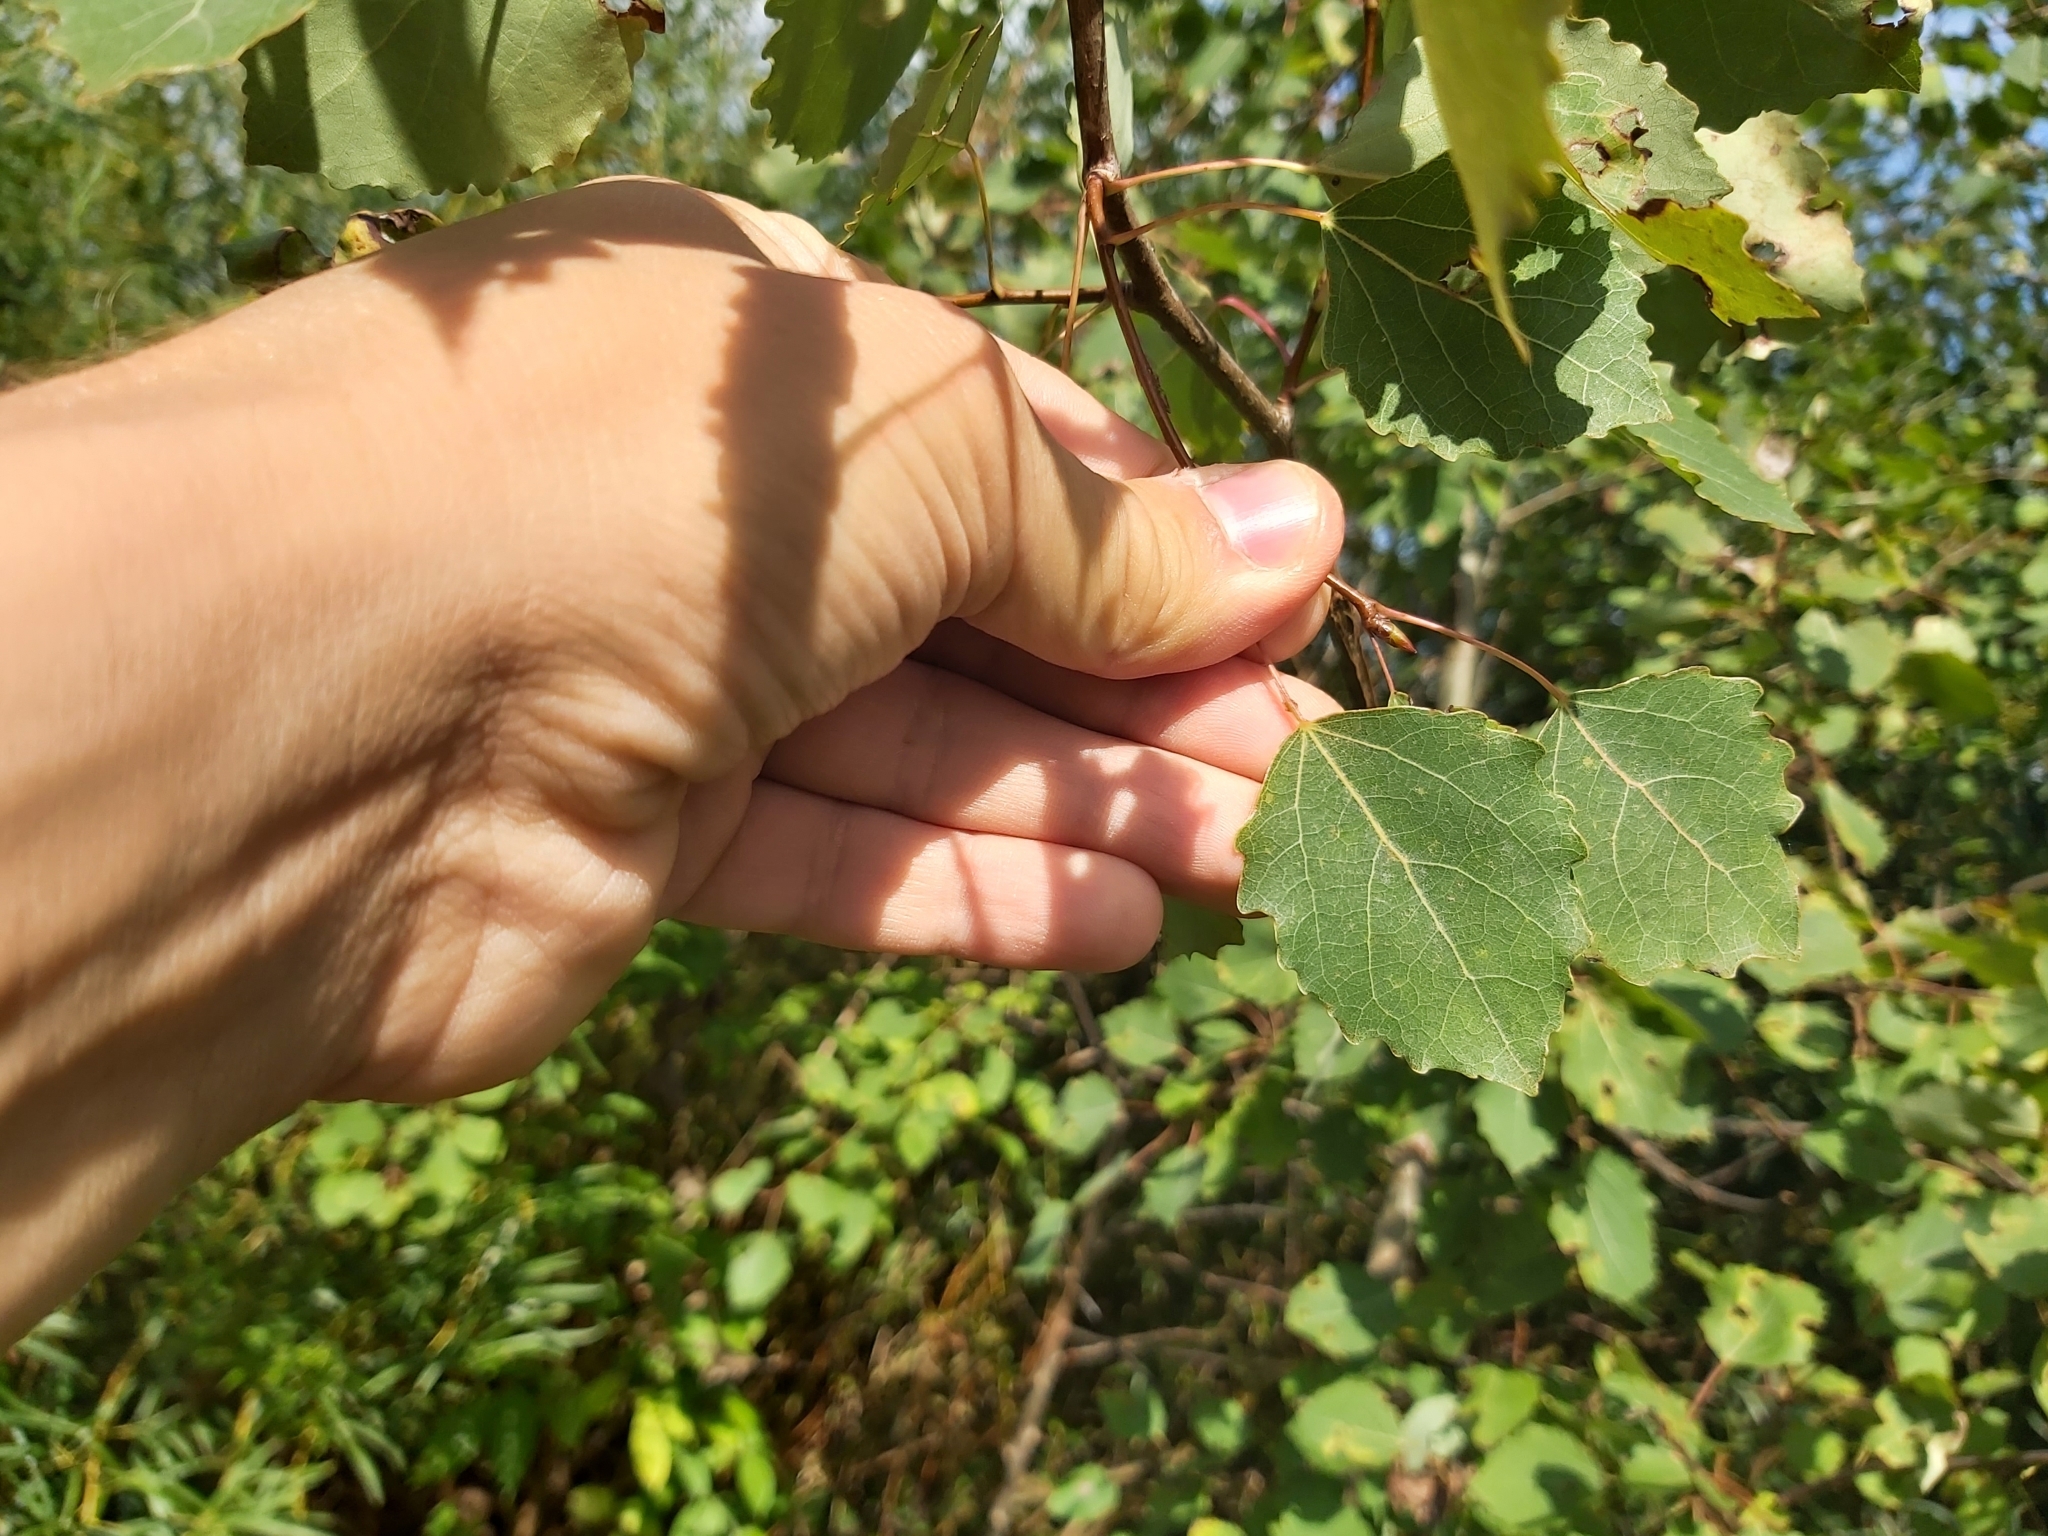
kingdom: Plantae
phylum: Tracheophyta
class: Magnoliopsida
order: Malpighiales
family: Salicaceae
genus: Populus
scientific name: Populus tremula
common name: European aspen
